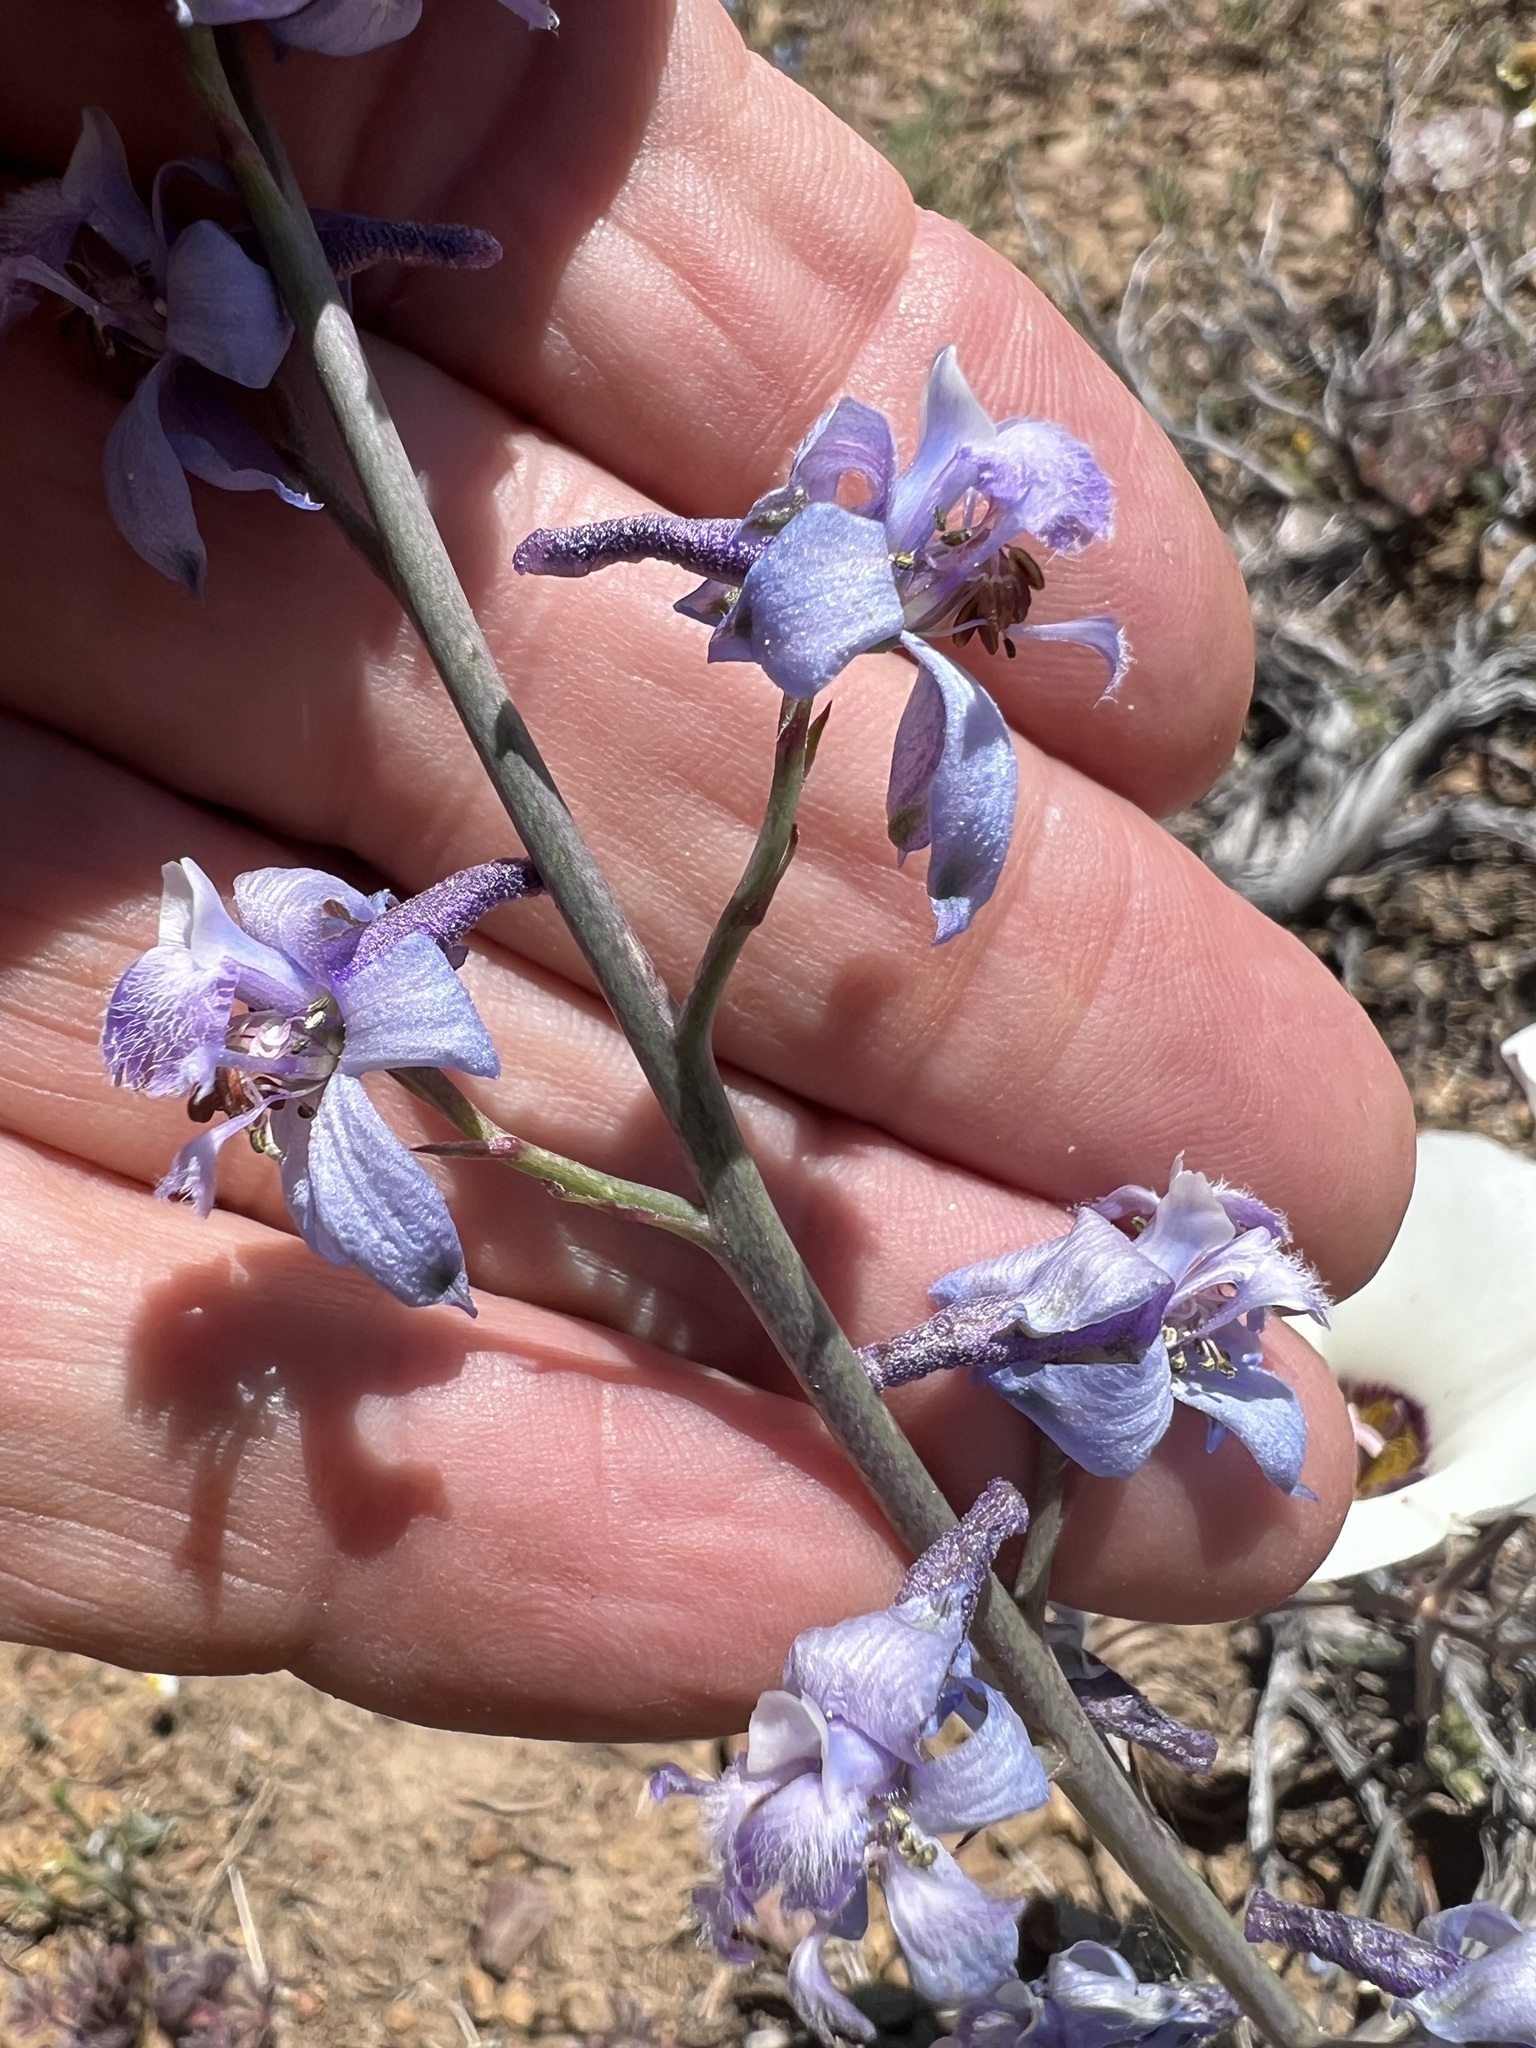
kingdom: Plantae
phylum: Tracheophyta
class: Magnoliopsida
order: Ranunculales
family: Ranunculaceae
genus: Delphinium
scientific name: Delphinium parishii
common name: Apache larkspur
